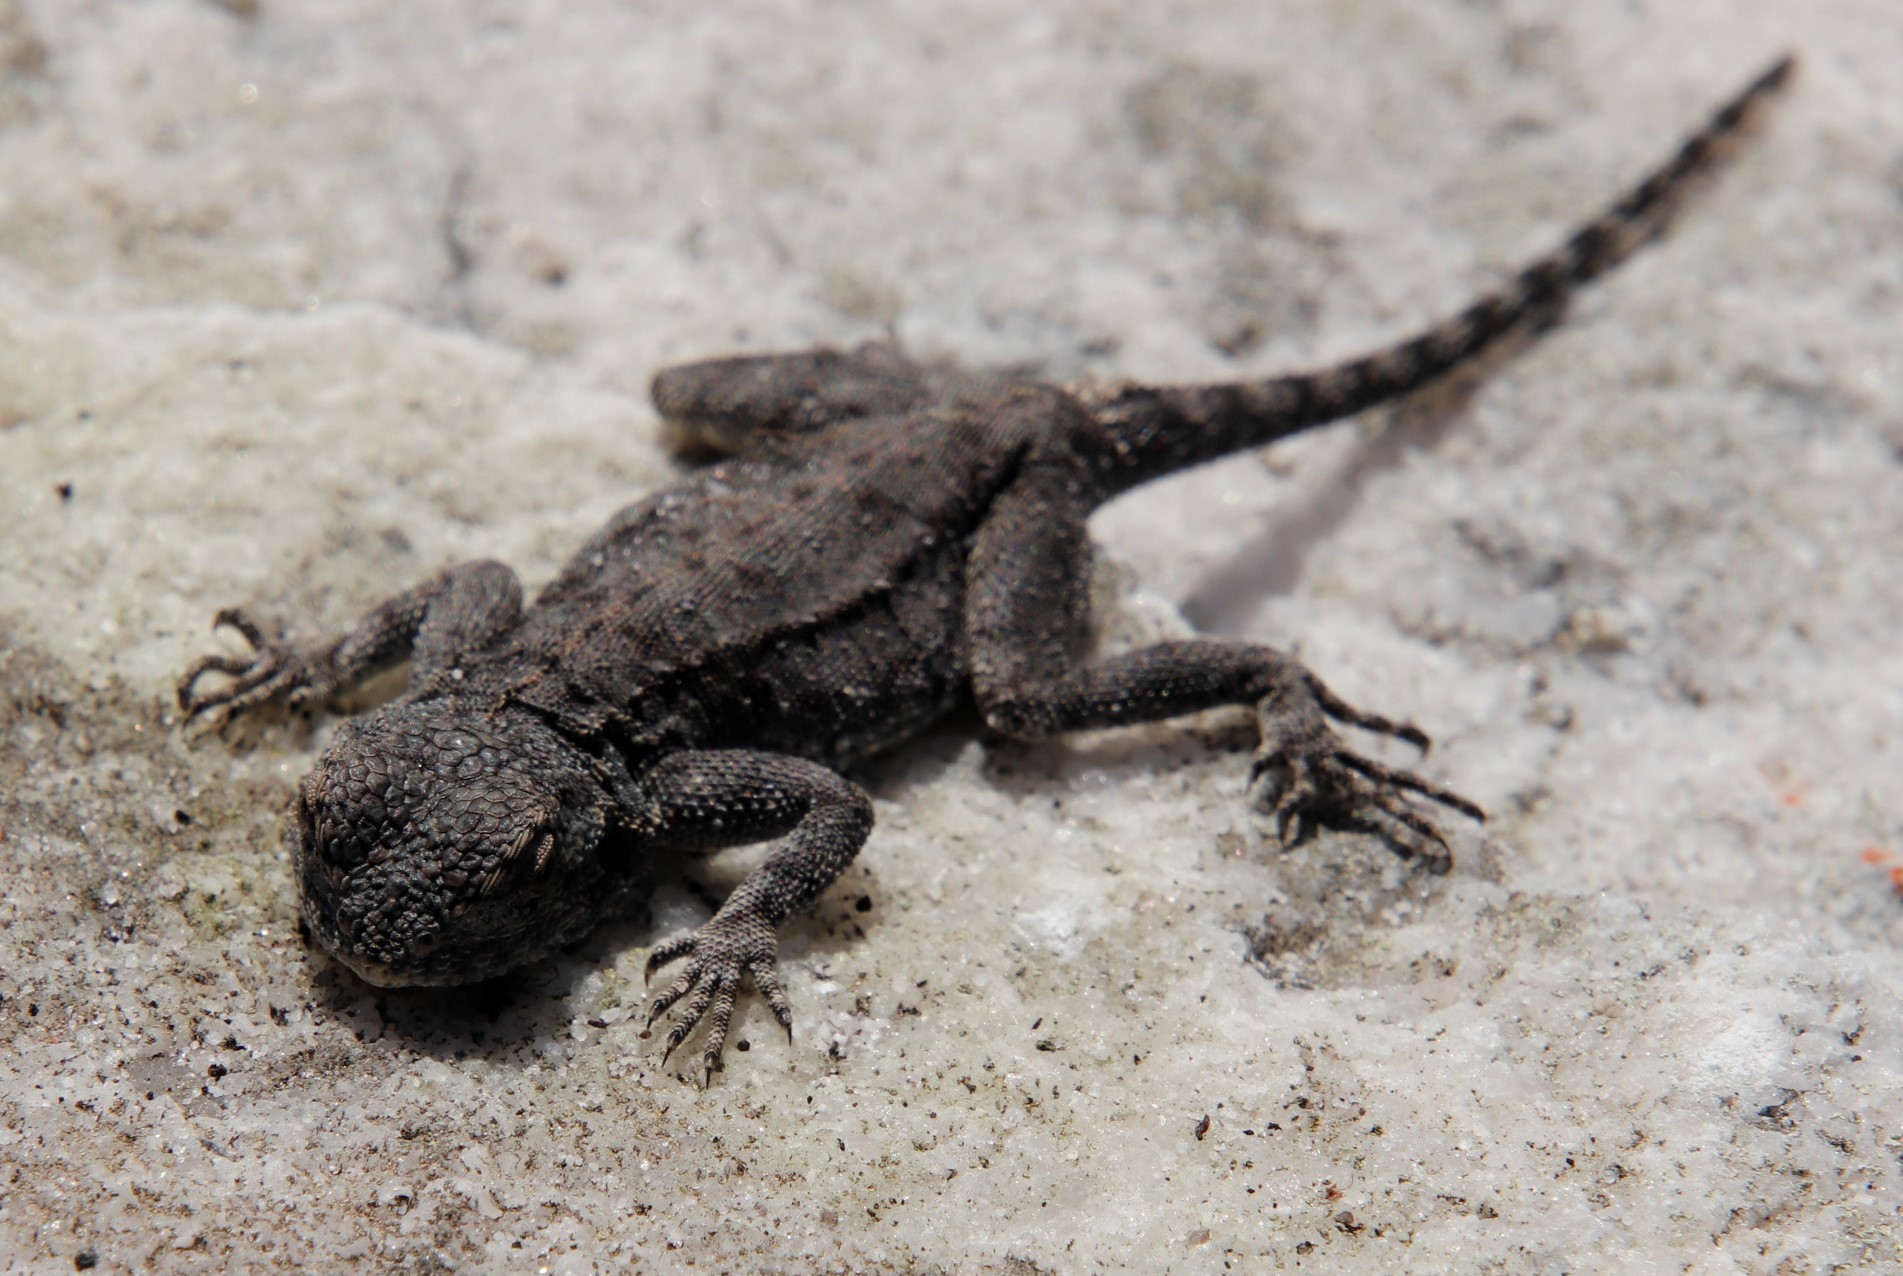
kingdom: Animalia
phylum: Chordata
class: Squamata
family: Agamidae
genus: Agama
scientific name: Agama atra
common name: Southern african rock agama
